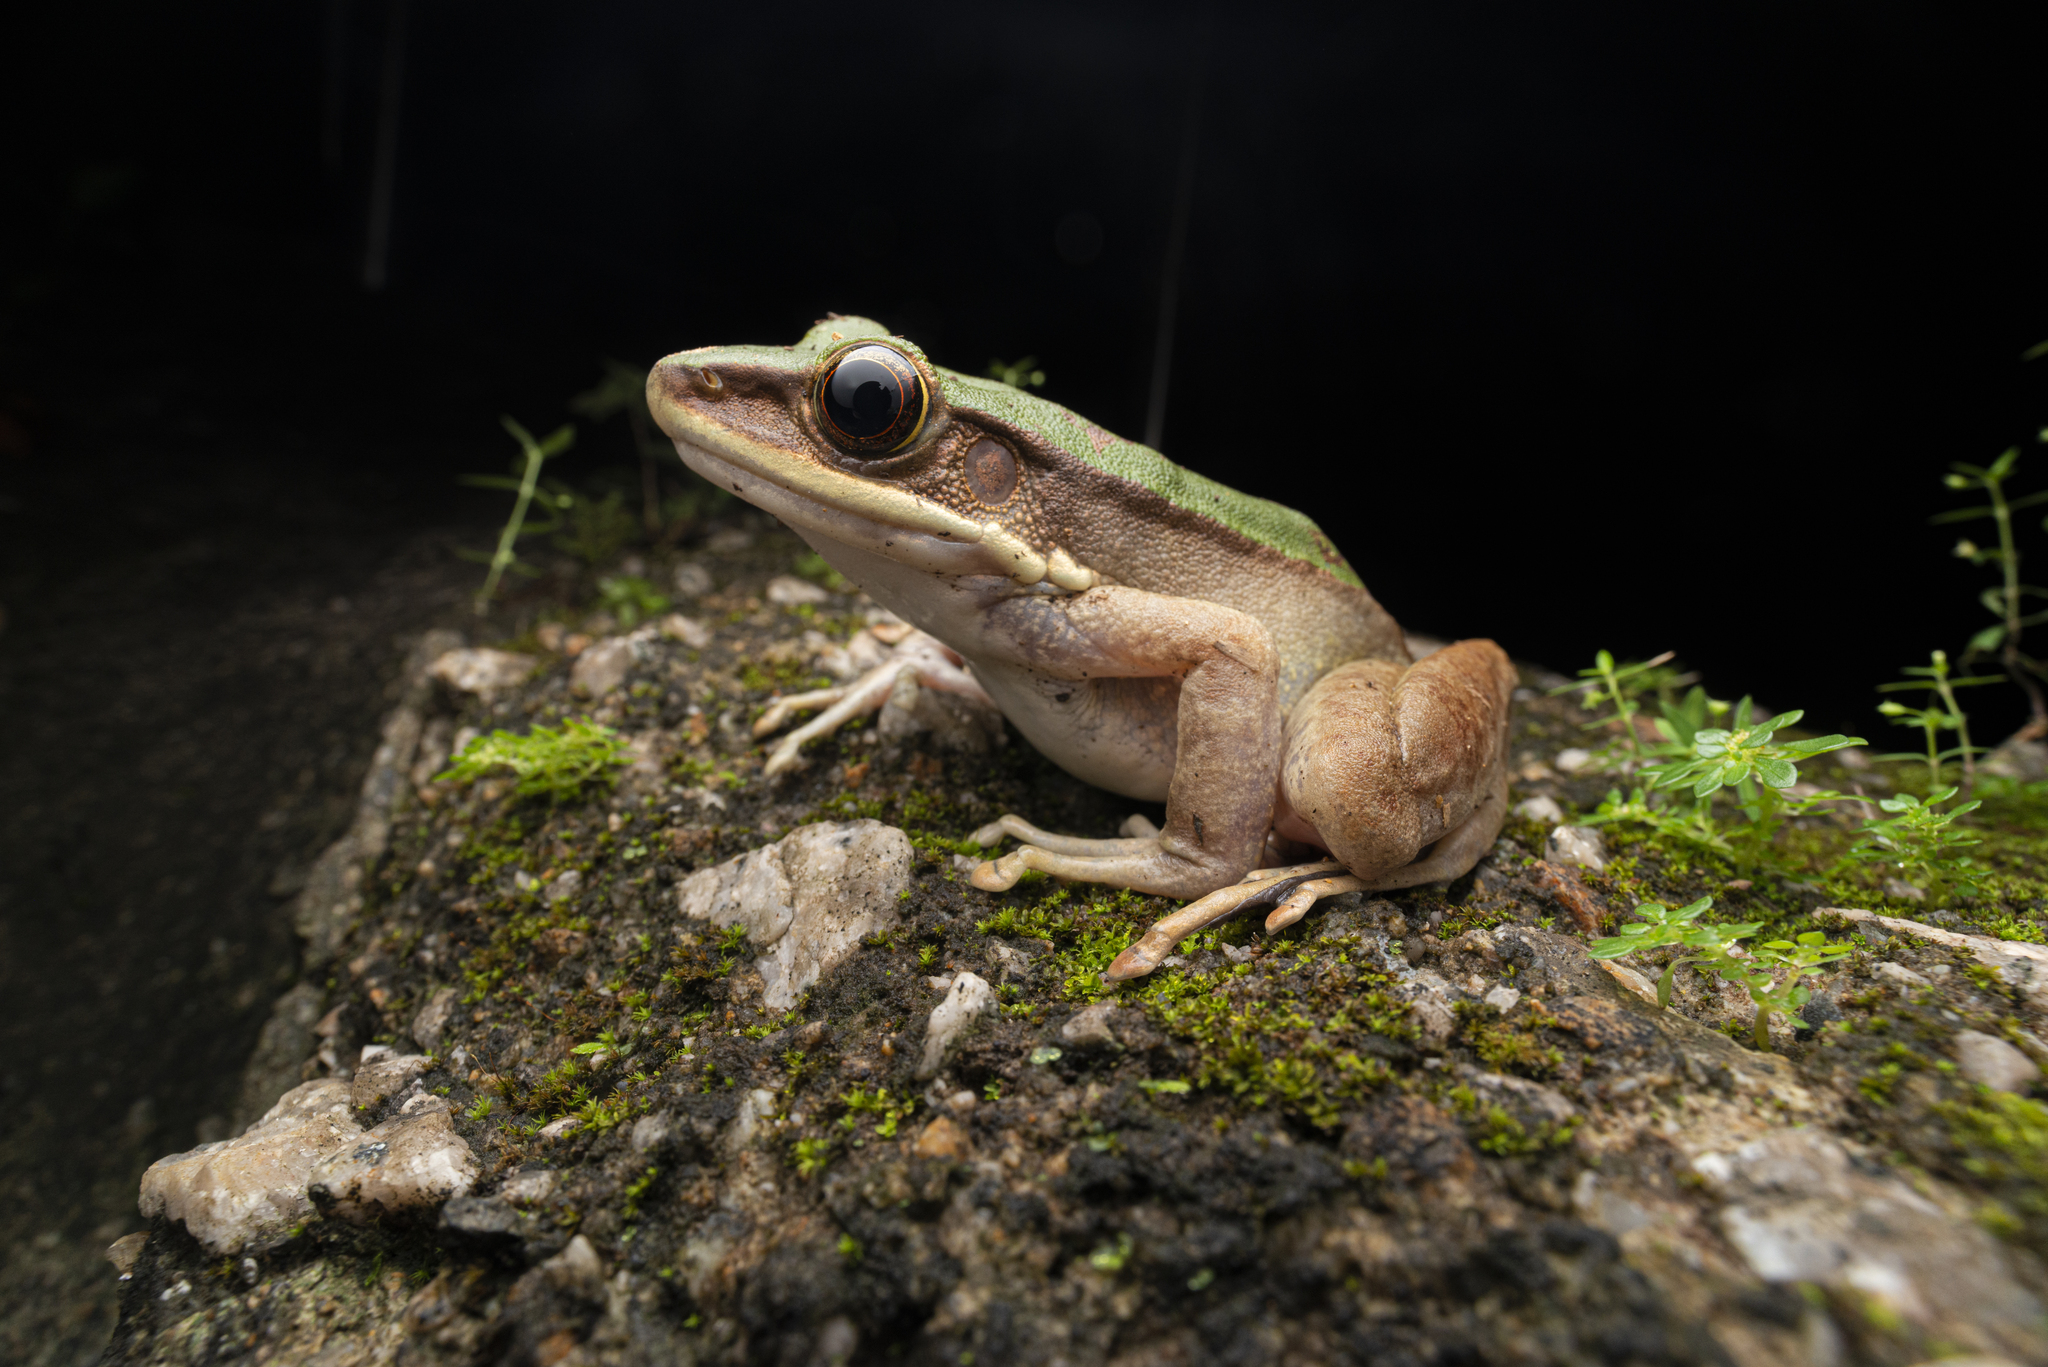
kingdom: Animalia
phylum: Chordata
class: Amphibia
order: Anura
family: Ranidae
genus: Odorrana
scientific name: Odorrana graminea
